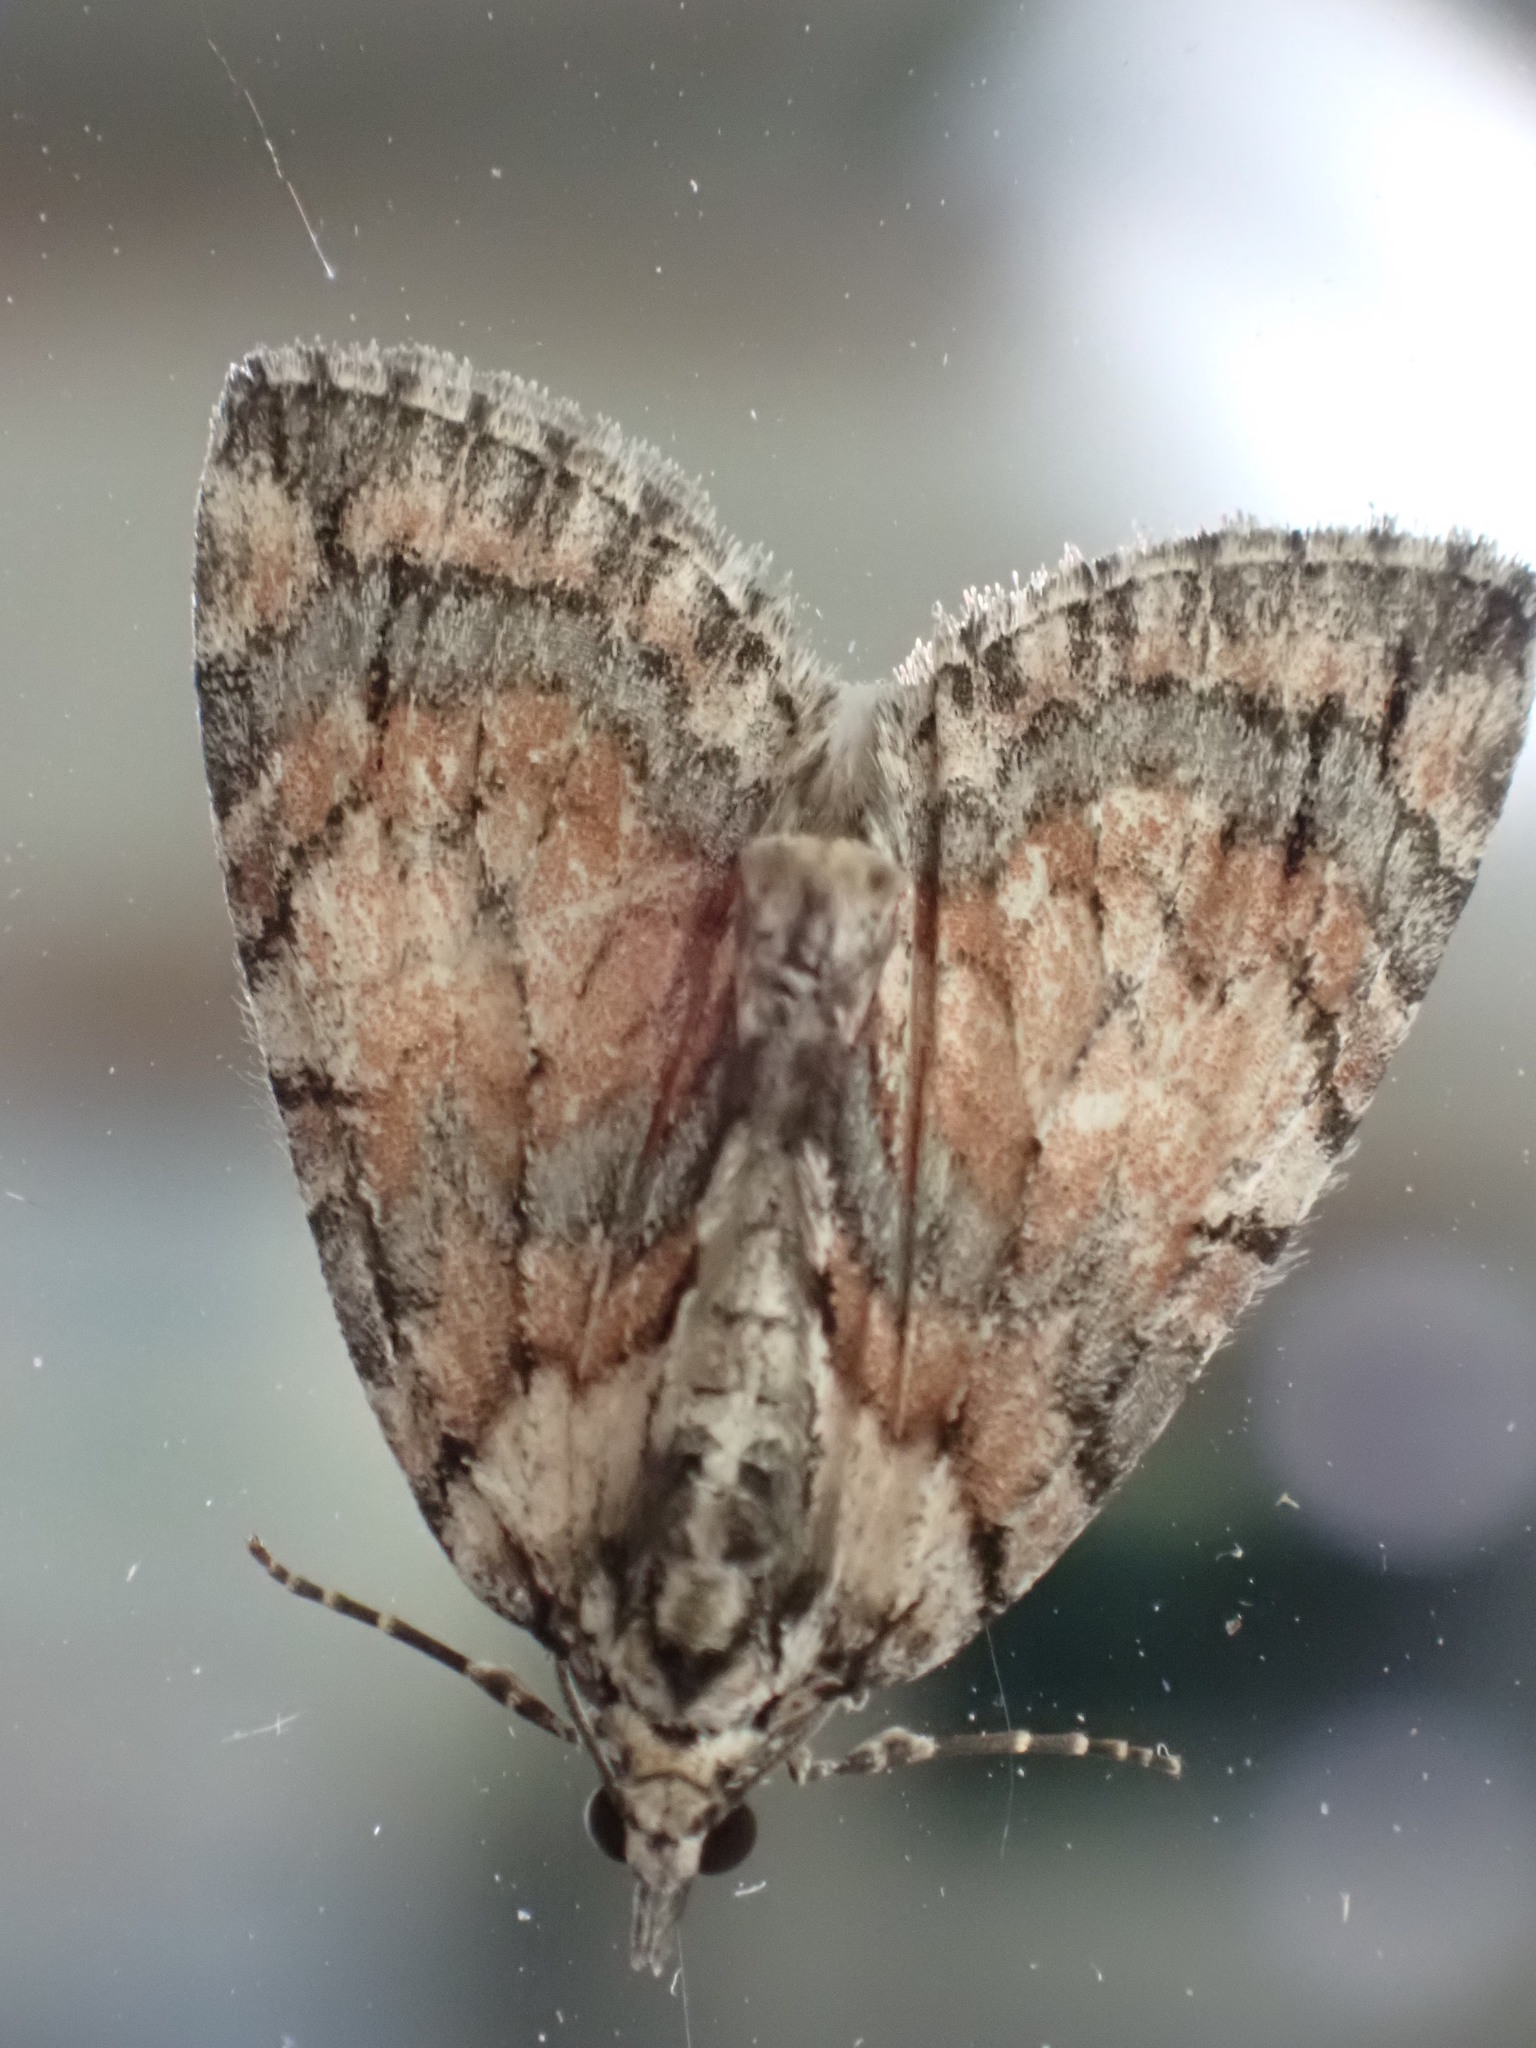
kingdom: Animalia
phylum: Arthropoda
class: Insecta
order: Lepidoptera
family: Geometridae
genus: Hydriomena
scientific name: Hydriomena perfracta
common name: Shattered hydriomena moth
